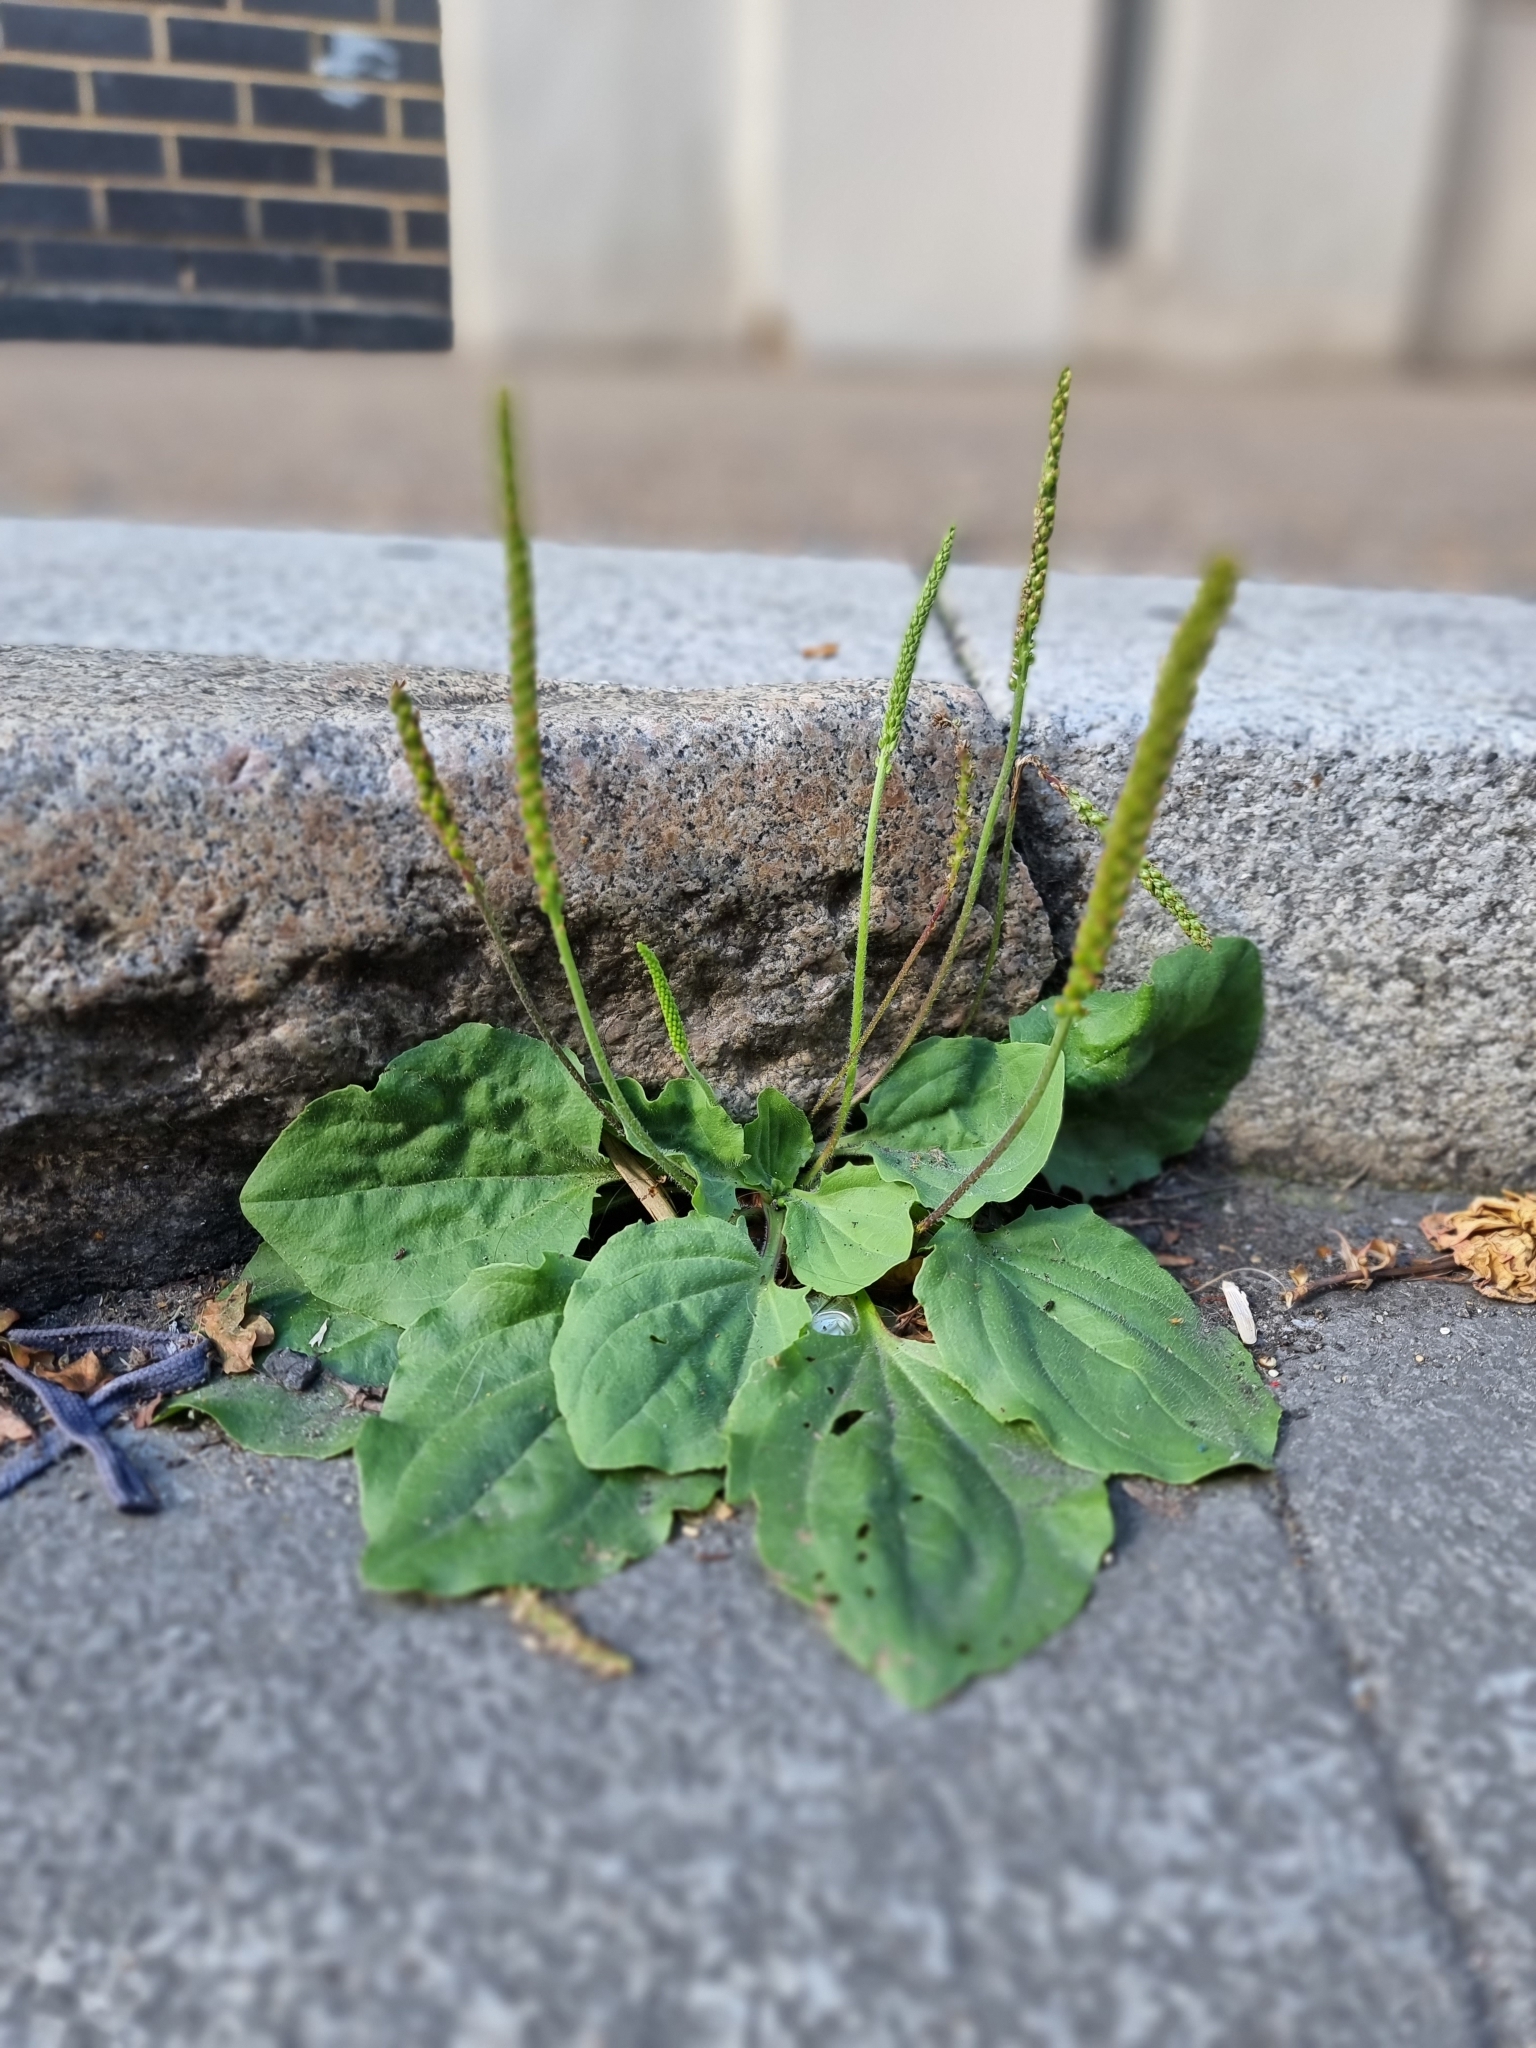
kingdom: Plantae
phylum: Tracheophyta
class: Magnoliopsida
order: Lamiales
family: Plantaginaceae
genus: Plantago
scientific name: Plantago major
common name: Common plantain
